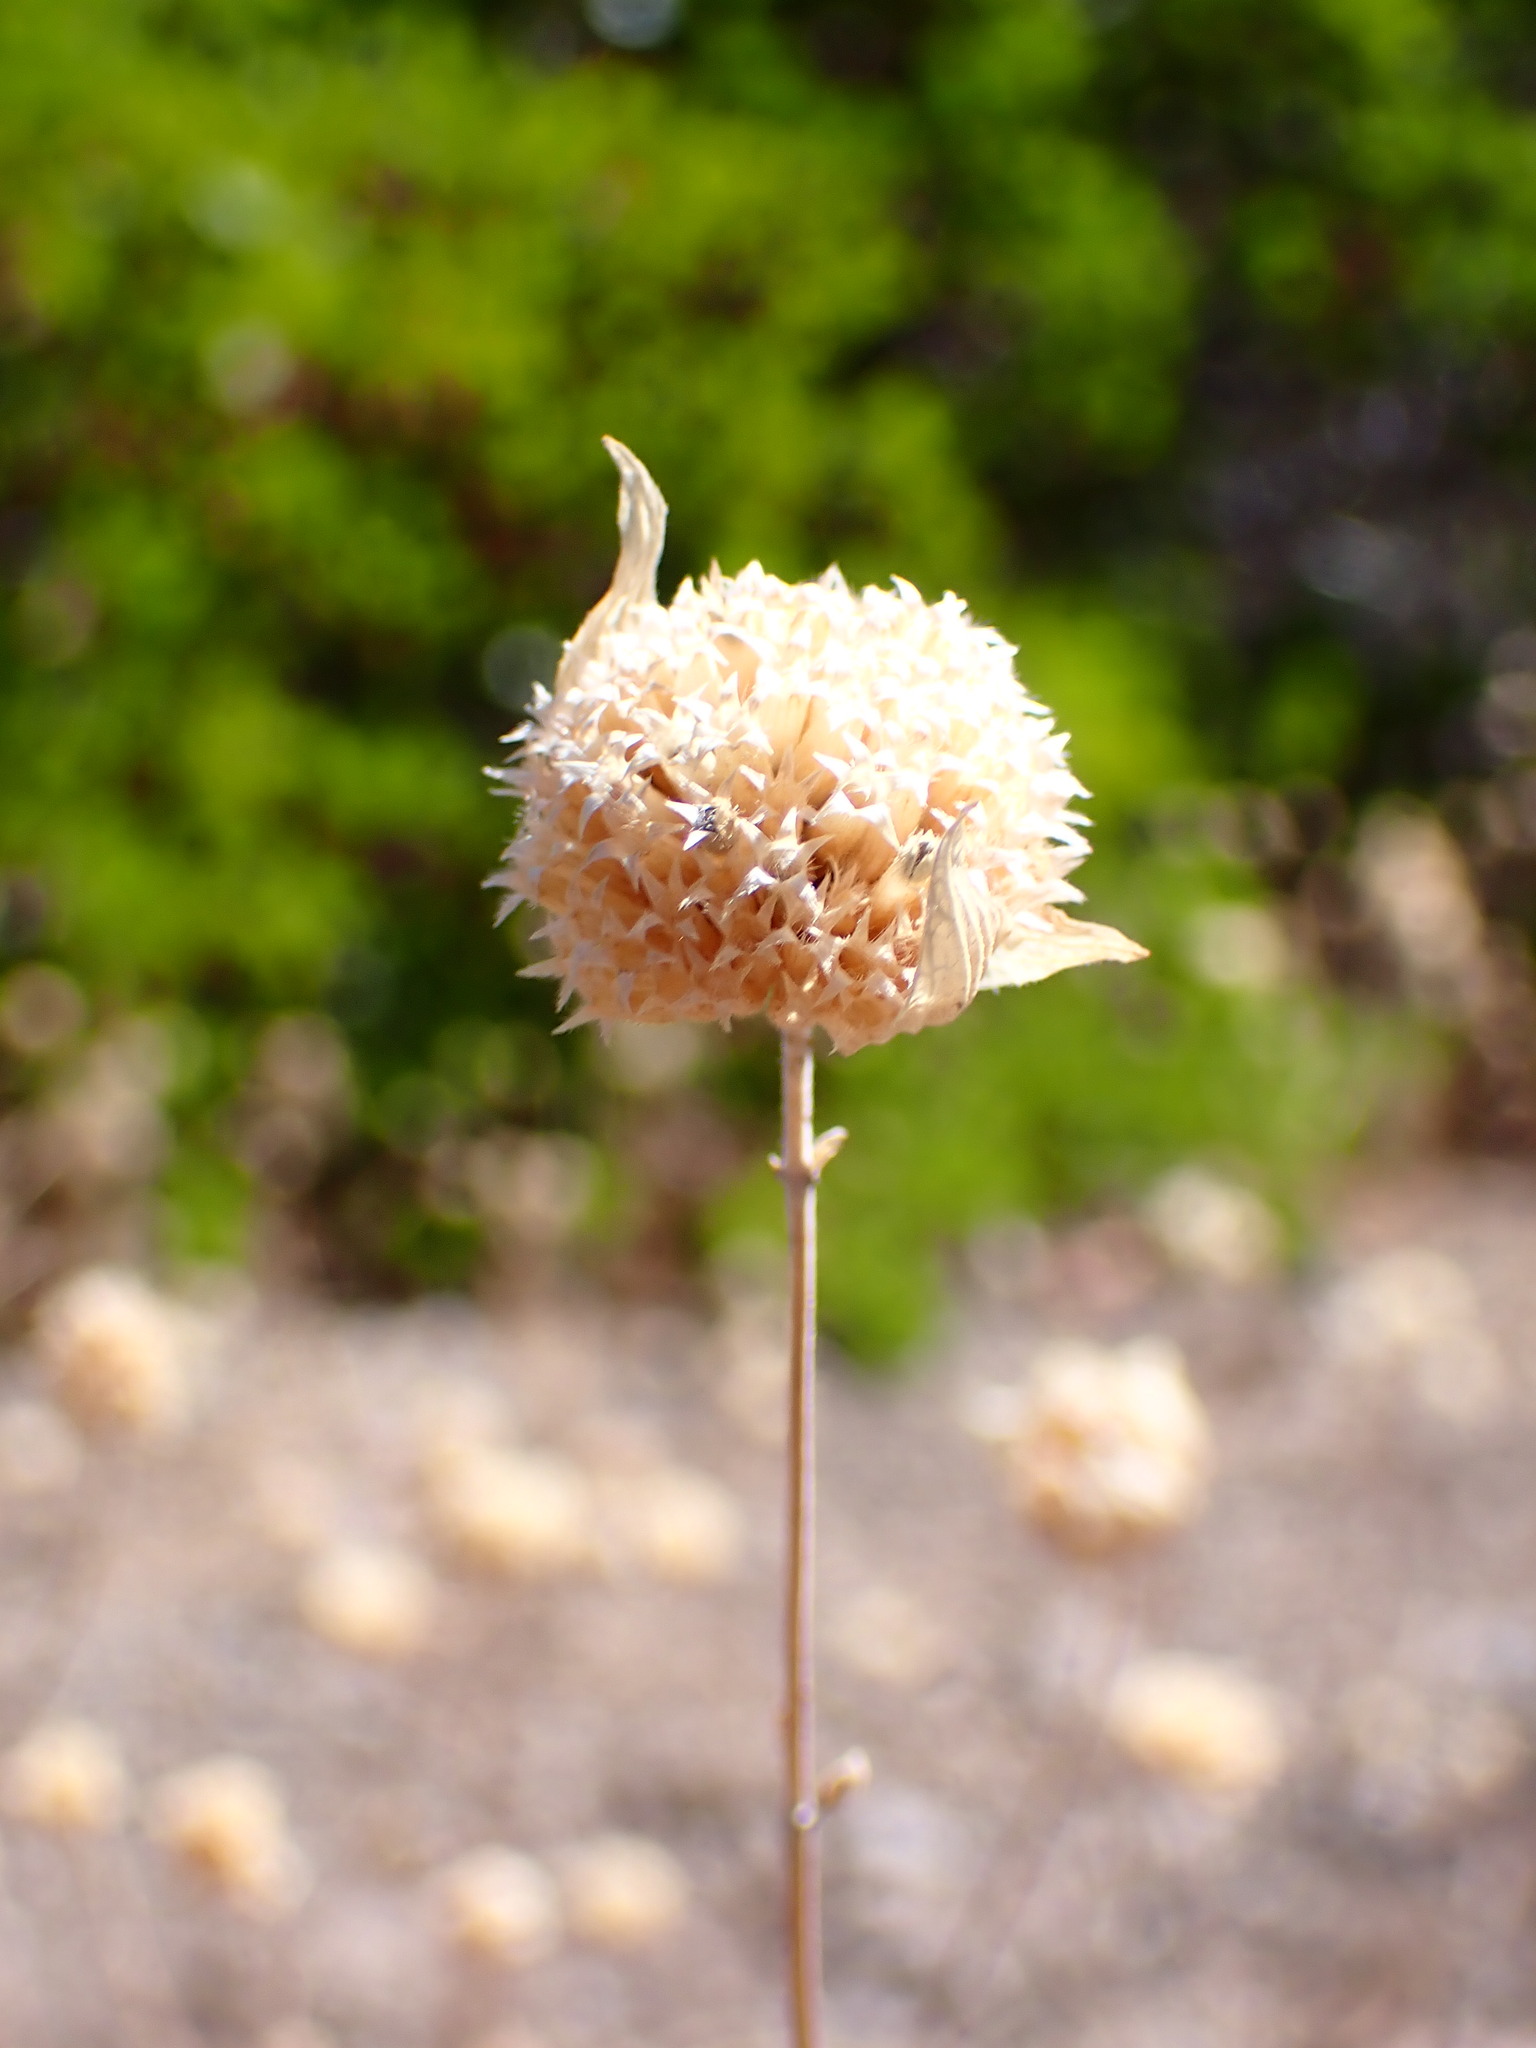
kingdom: Plantae
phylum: Tracheophyta
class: Magnoliopsida
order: Lamiales
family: Lamiaceae
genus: Salvia
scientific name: Salvia columbariae
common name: Chia
